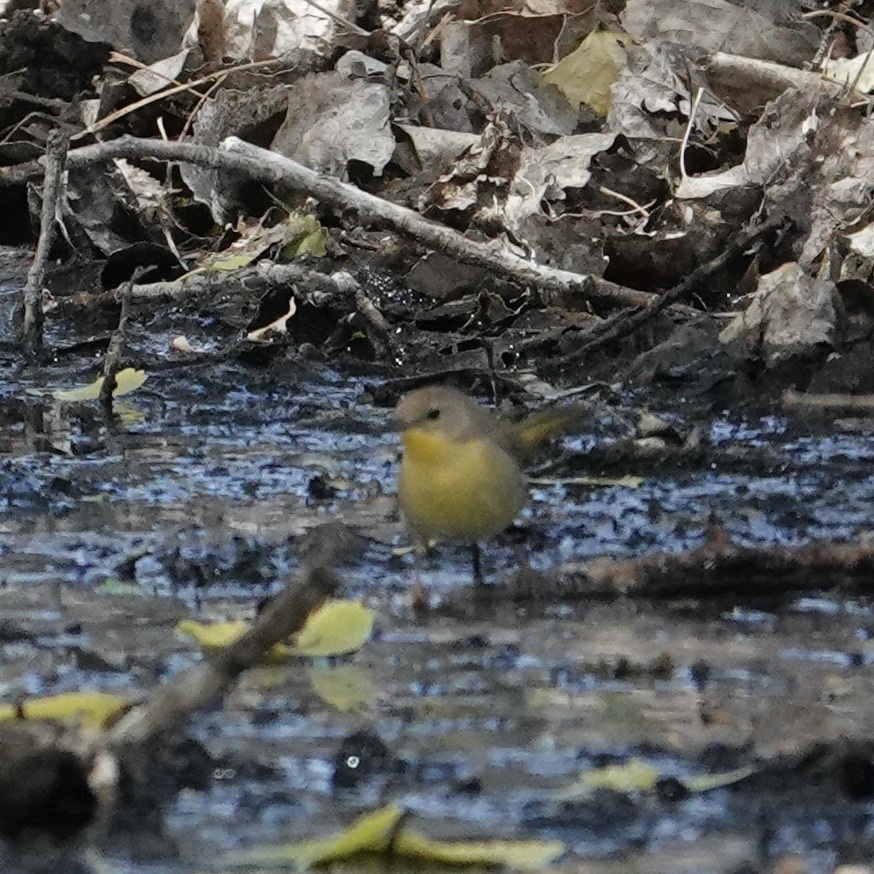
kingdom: Animalia
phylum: Chordata
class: Aves
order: Passeriformes
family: Parulidae
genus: Geothlypis
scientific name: Geothlypis trichas
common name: Common yellowthroat
